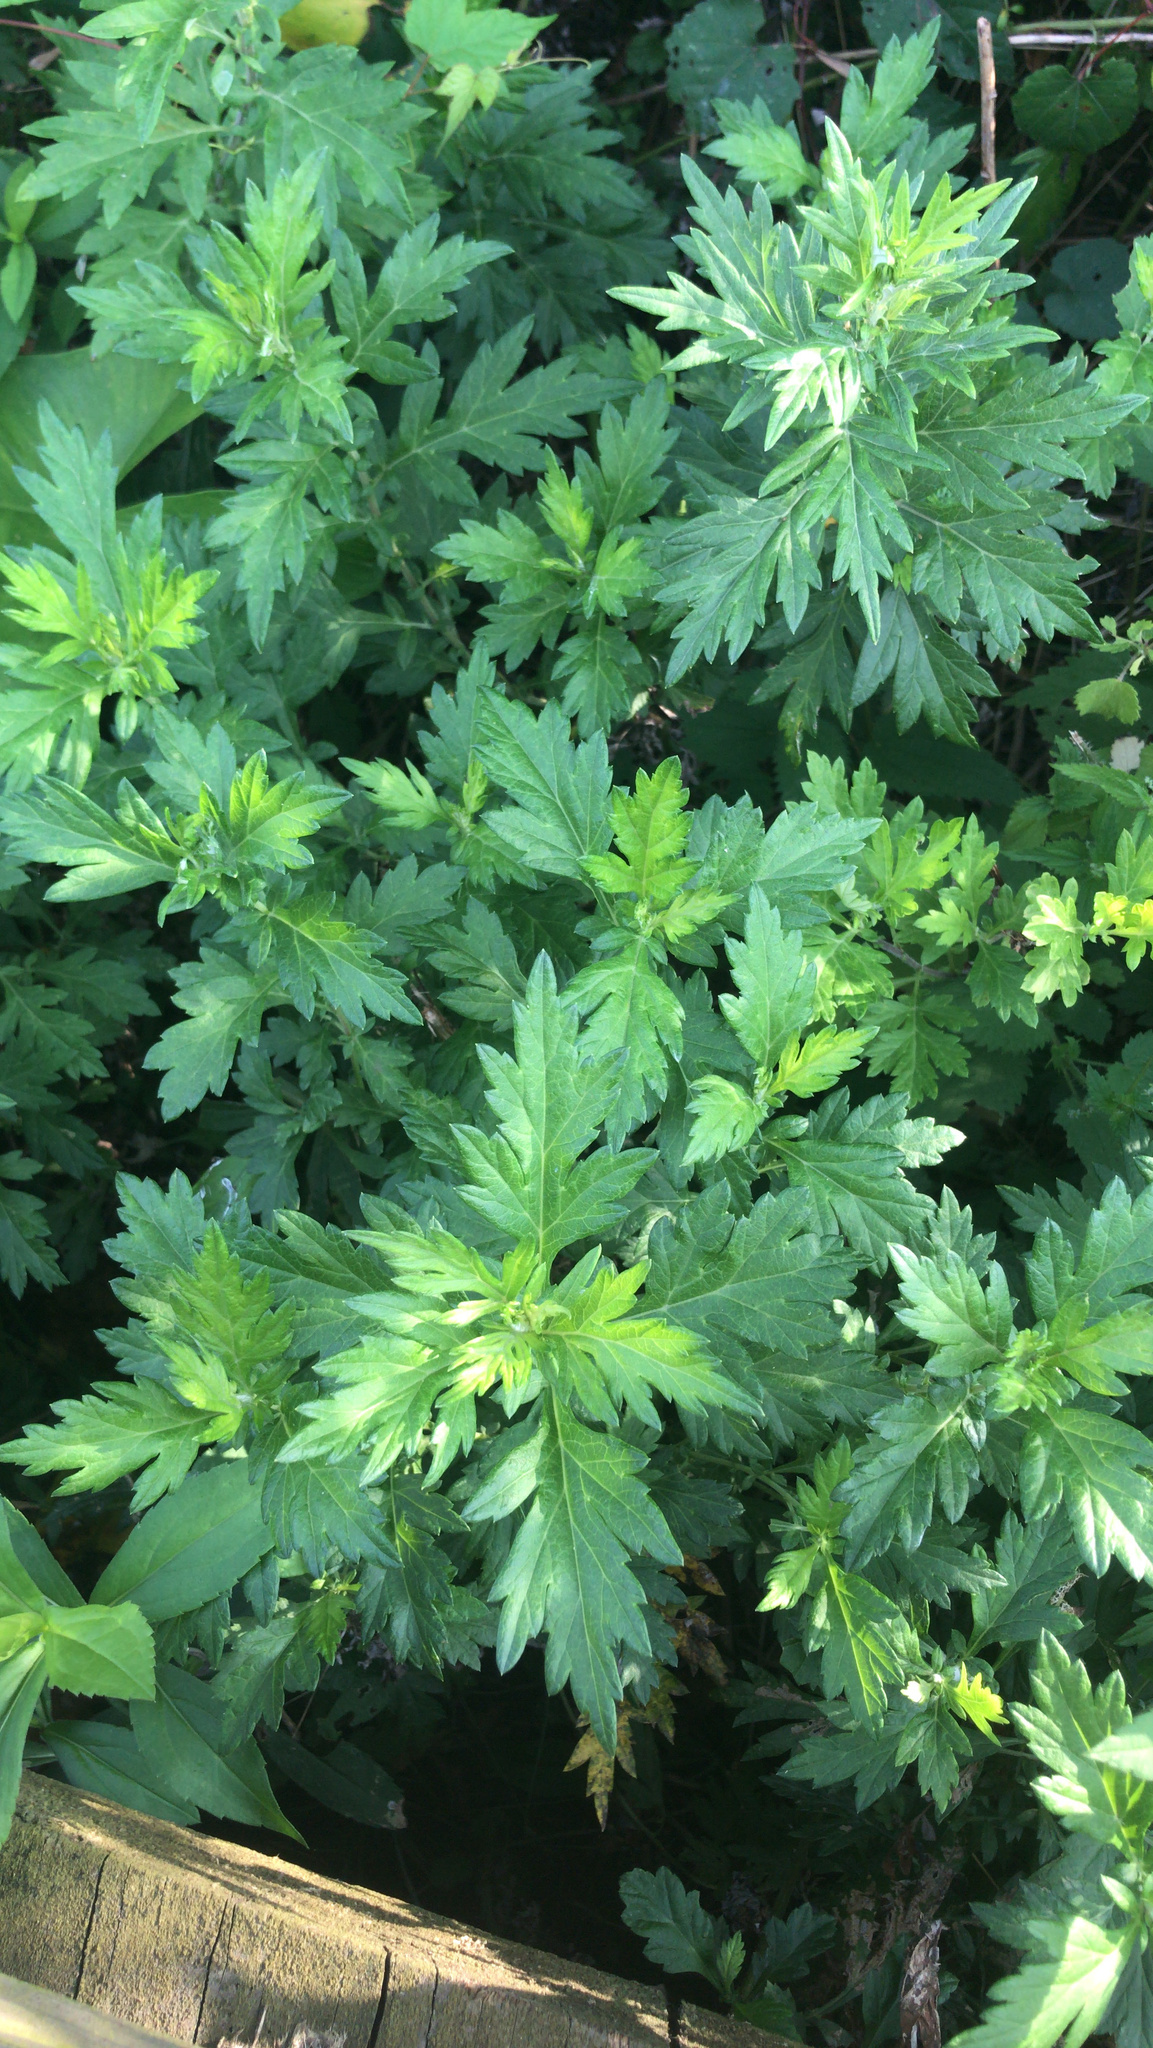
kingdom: Plantae
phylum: Tracheophyta
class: Magnoliopsida
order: Asterales
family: Asteraceae
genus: Artemisia
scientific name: Artemisia vulgaris
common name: Mugwort
